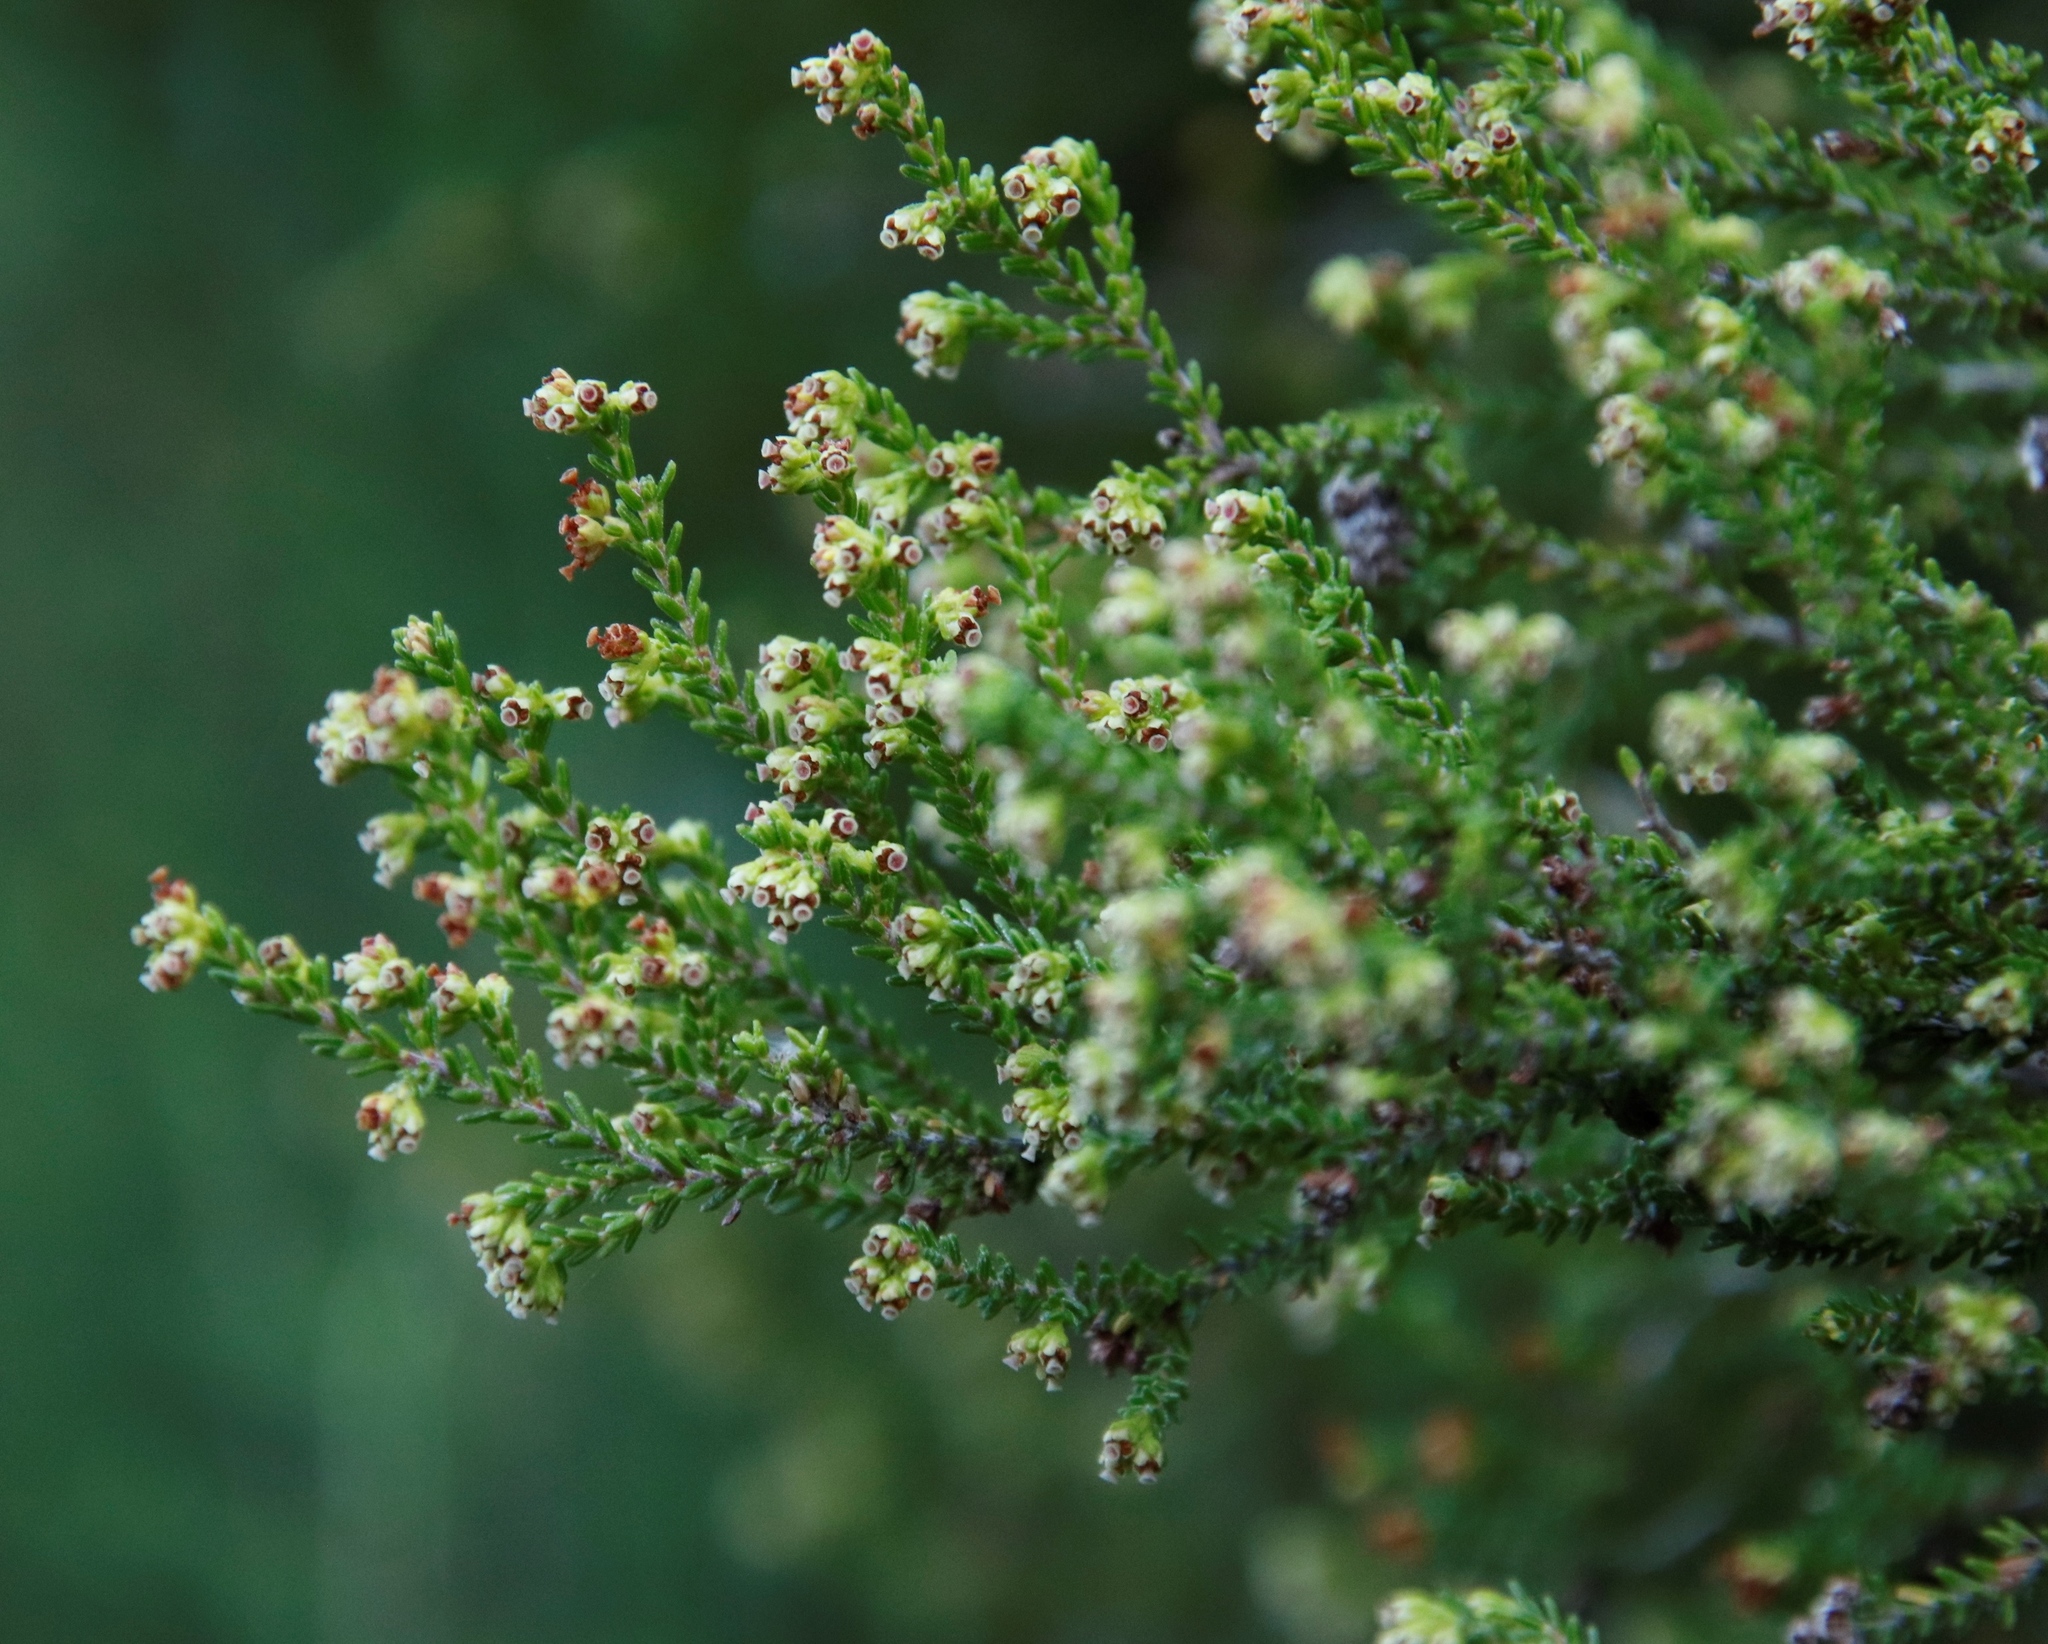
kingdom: Plantae
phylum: Tracheophyta
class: Magnoliopsida
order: Ericales
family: Ericaceae
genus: Erica
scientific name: Erica tristis
